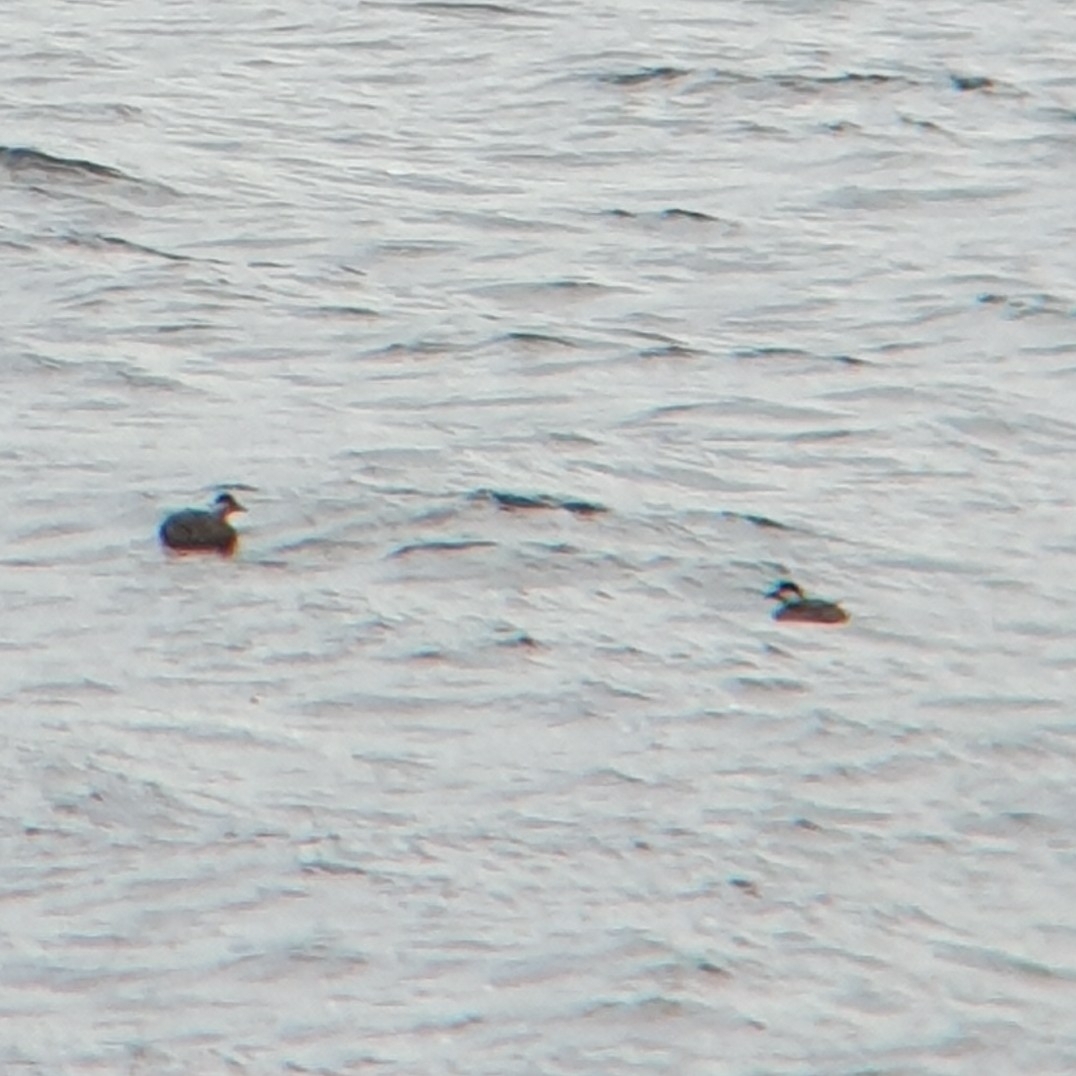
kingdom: Animalia
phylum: Chordata
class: Aves
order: Anseriformes
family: Anatidae
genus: Melanitta
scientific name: Melanitta nigra
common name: Common scoter
